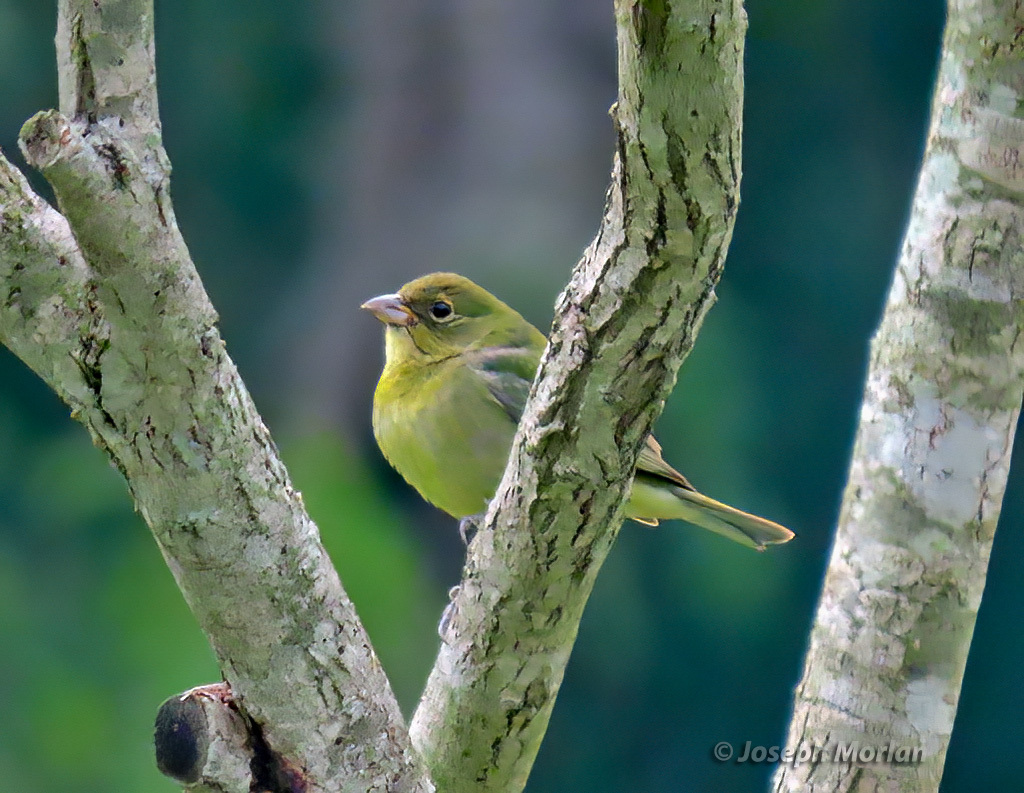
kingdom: Animalia
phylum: Chordata
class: Aves
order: Passeriformes
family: Cardinalidae
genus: Passerina
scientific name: Passerina ciris
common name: Painted bunting
